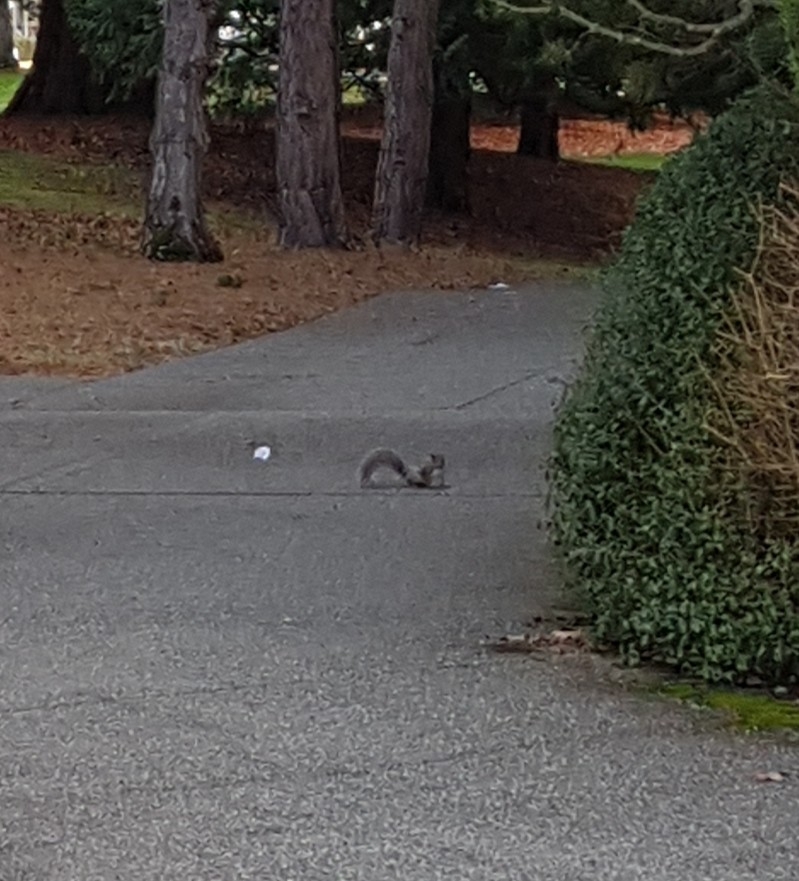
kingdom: Animalia
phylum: Chordata
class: Mammalia
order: Rodentia
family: Sciuridae
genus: Sciurus
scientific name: Sciurus carolinensis
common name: Eastern gray squirrel
